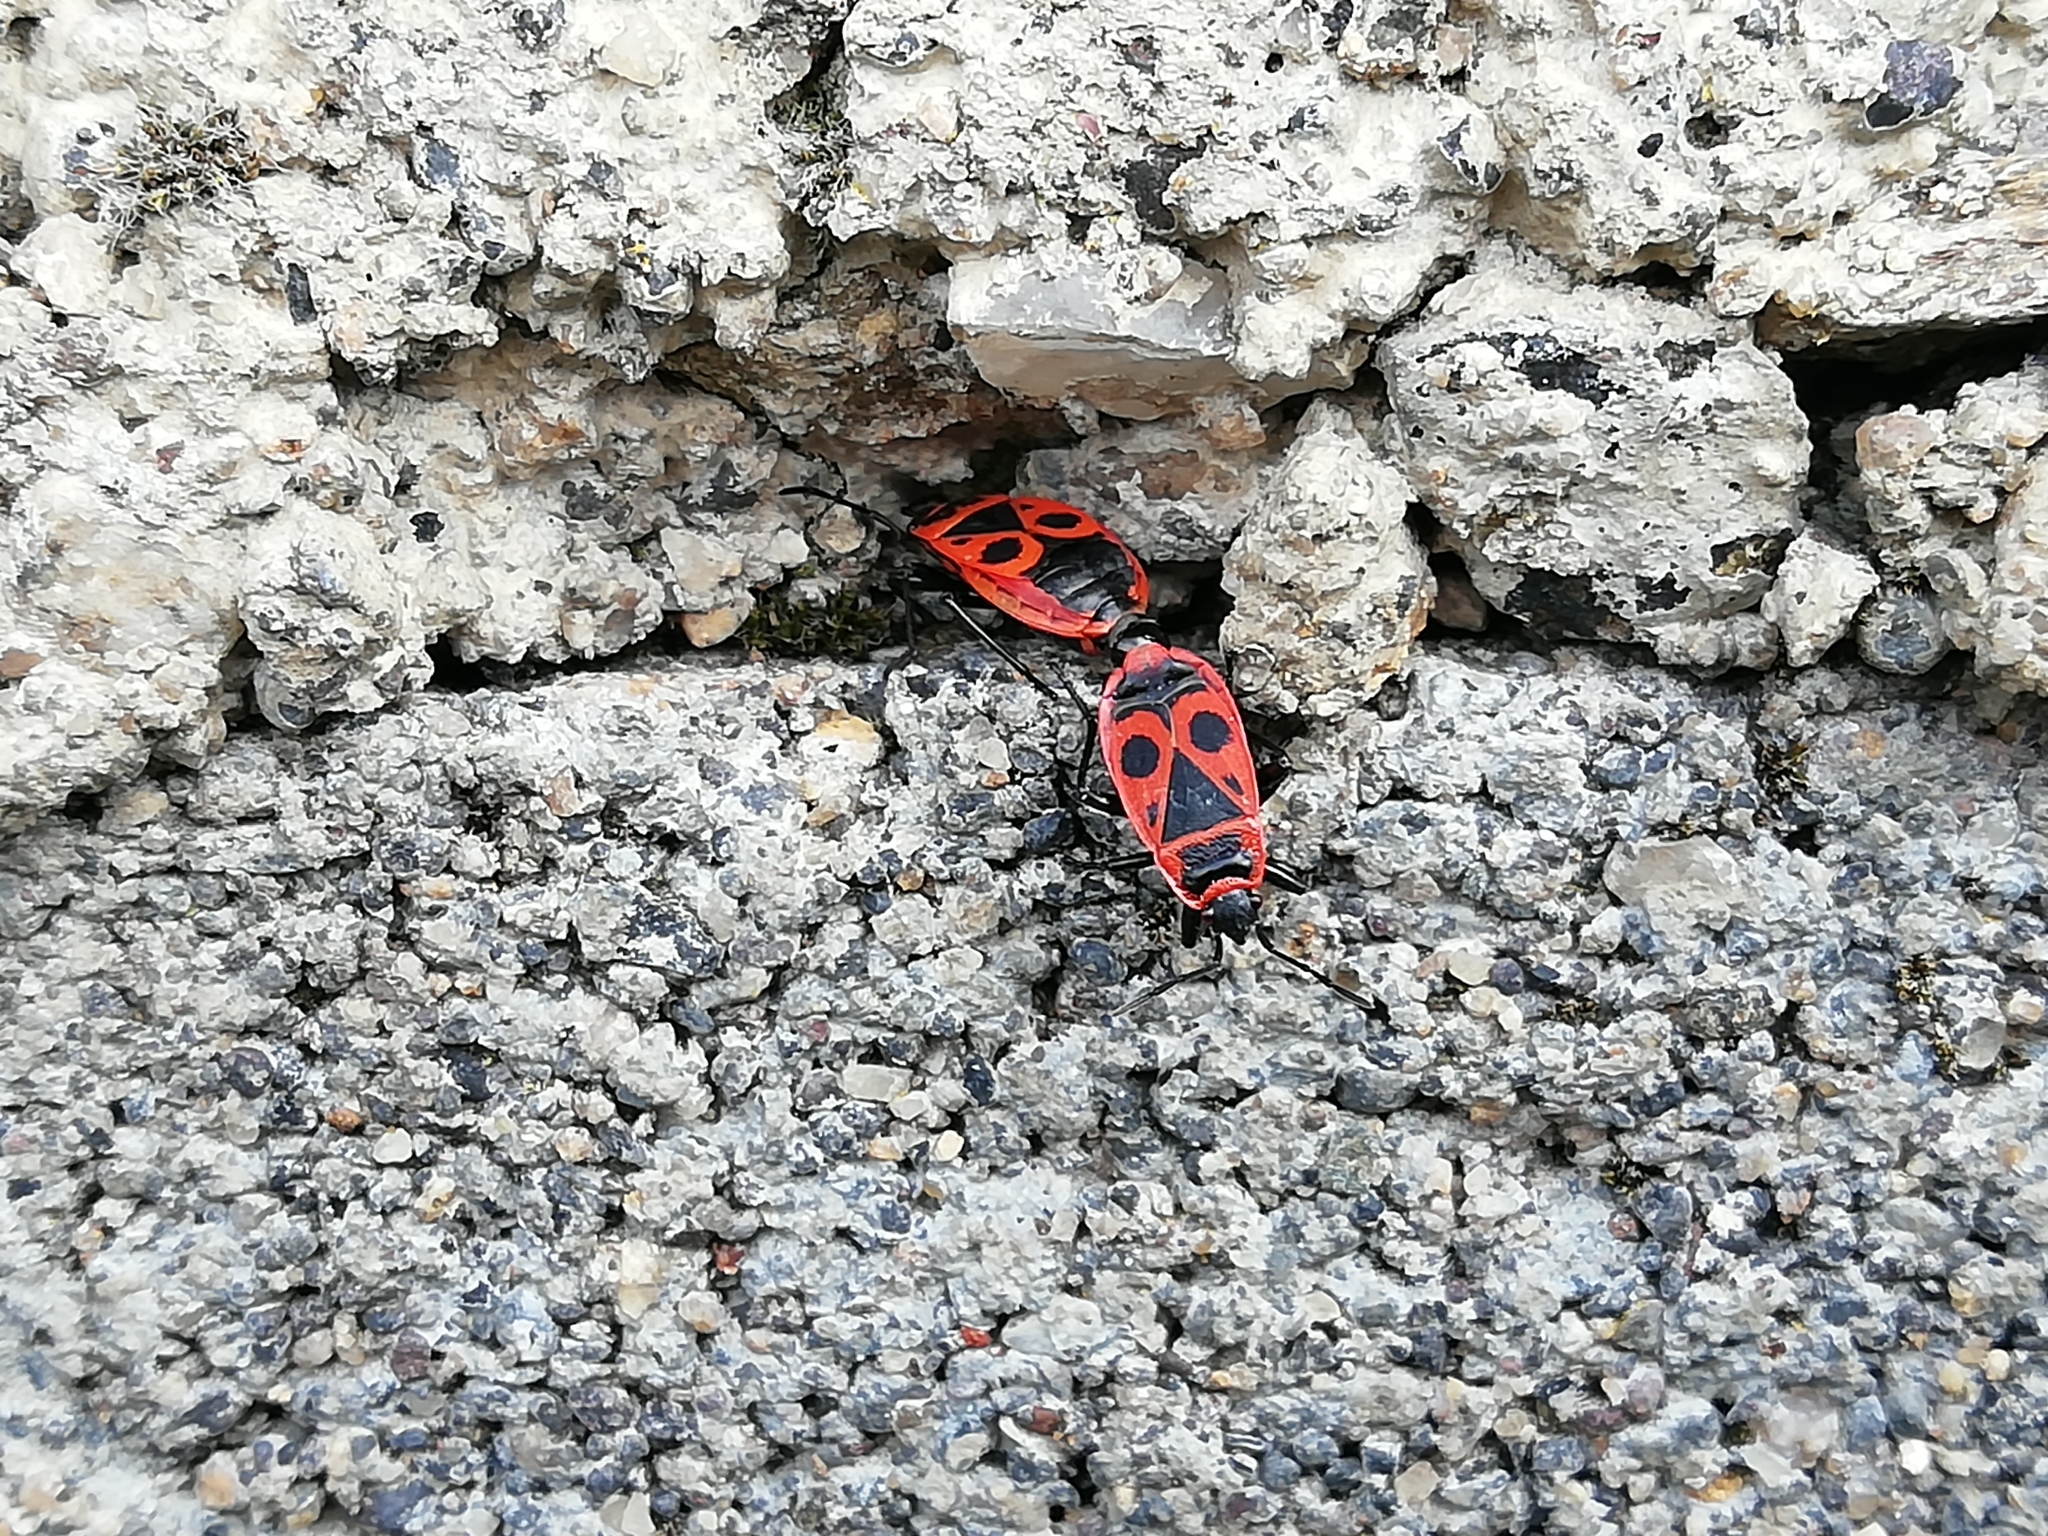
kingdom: Animalia
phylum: Arthropoda
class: Insecta
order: Hemiptera
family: Pyrrhocoridae
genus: Pyrrhocoris
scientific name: Pyrrhocoris apterus
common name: Firebug
